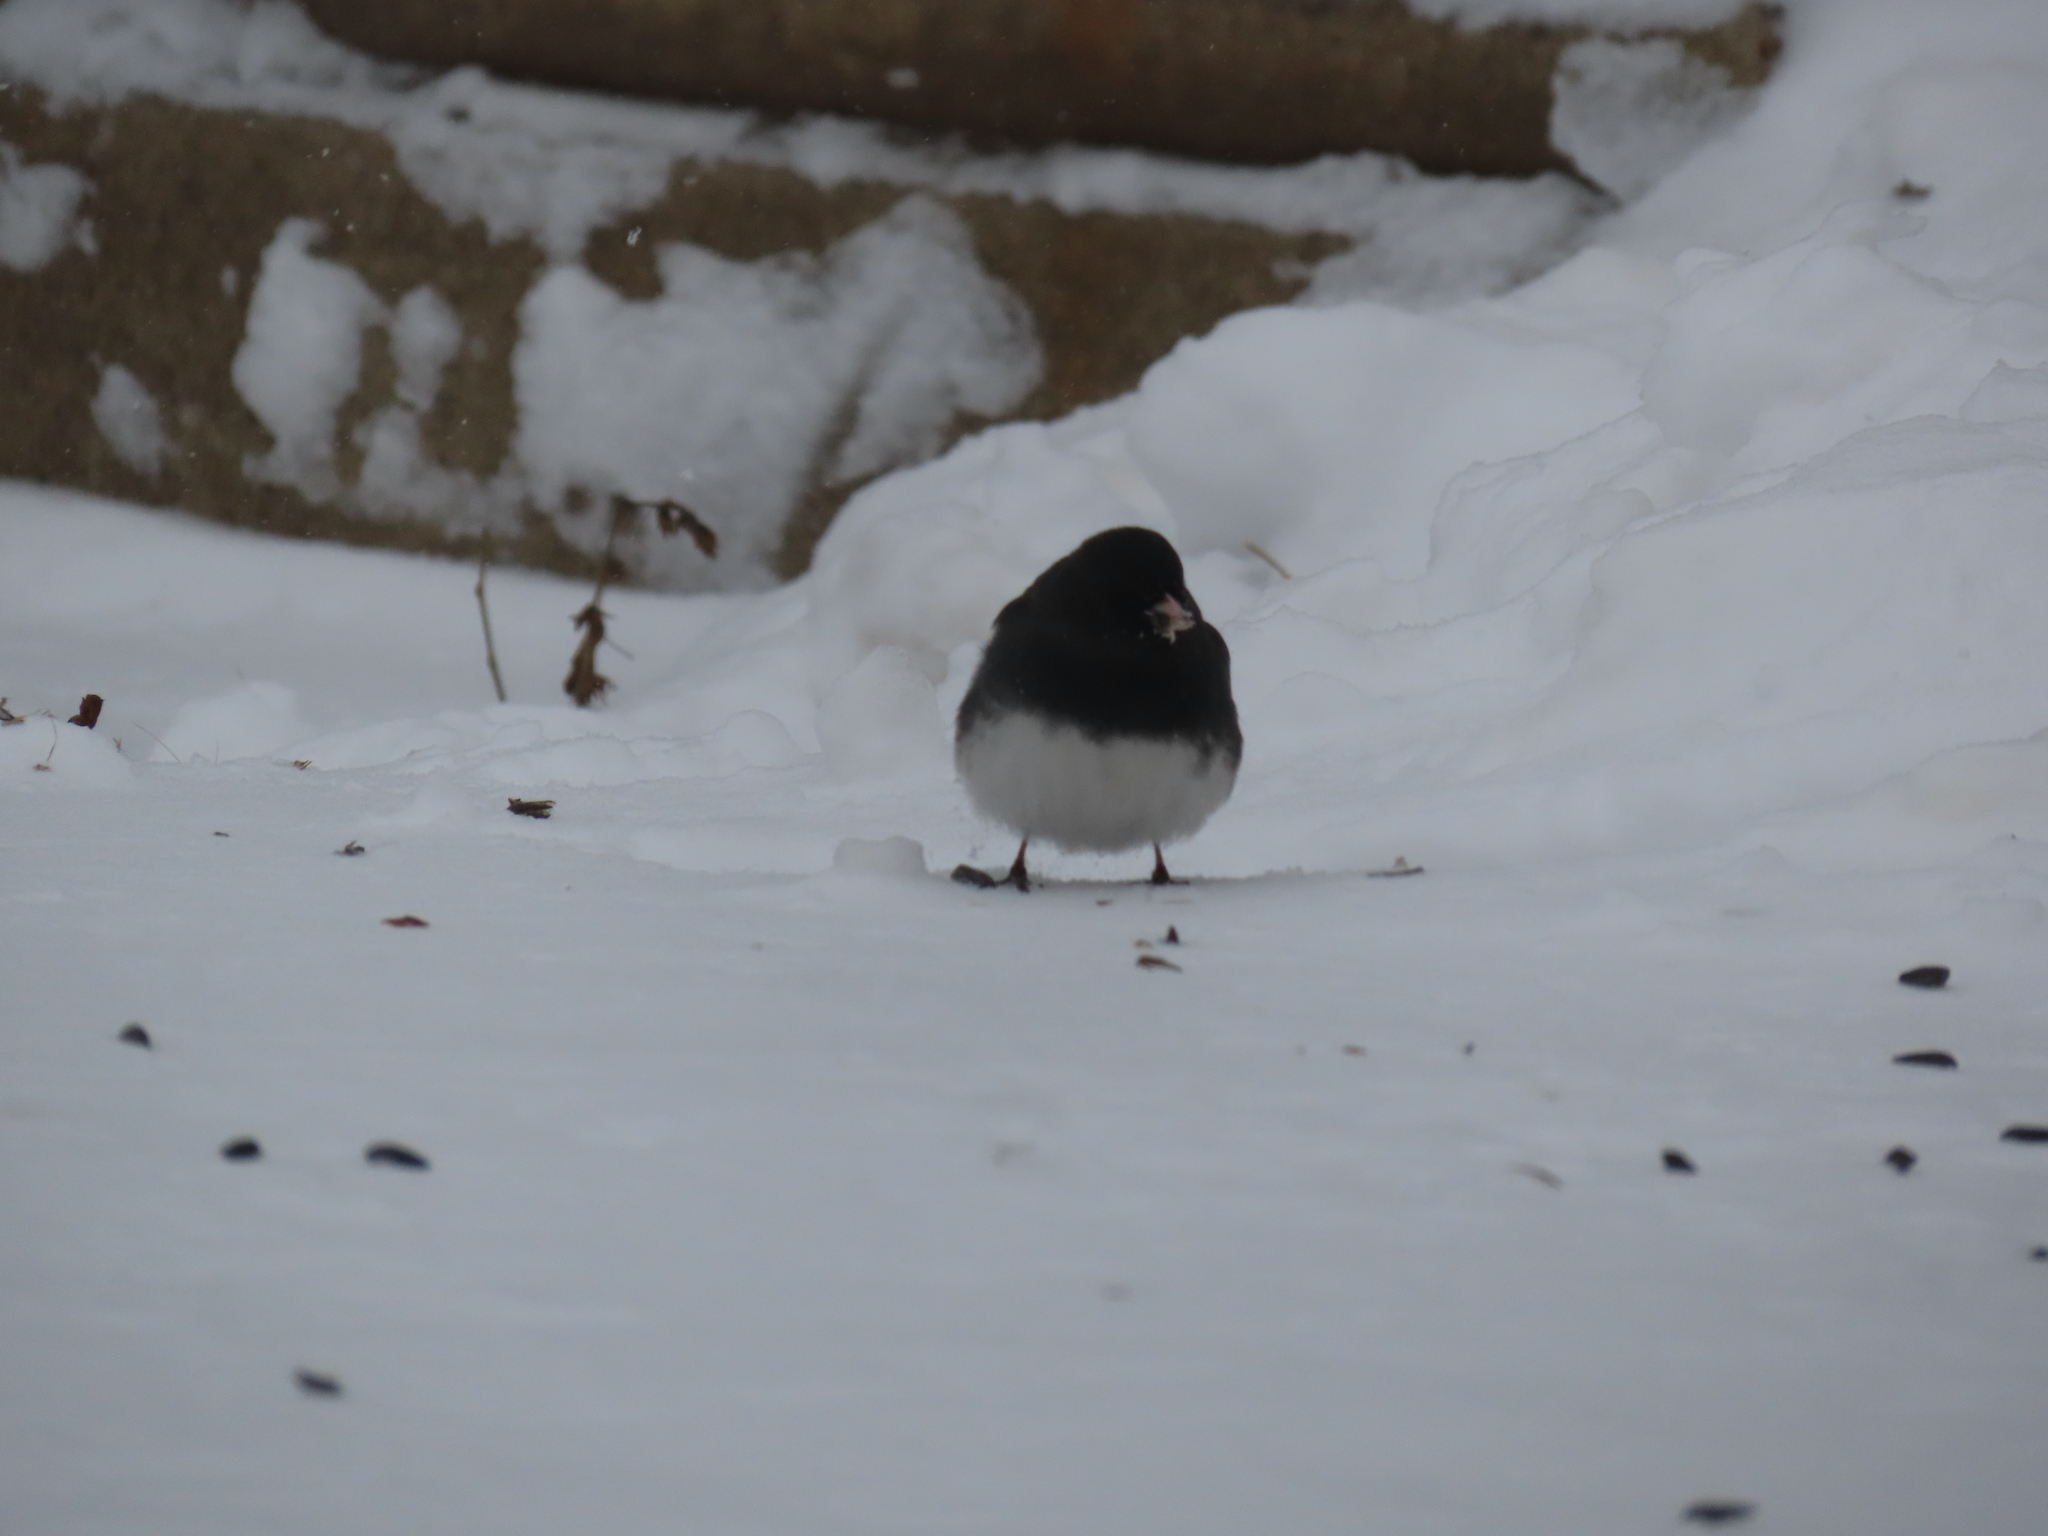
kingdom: Animalia
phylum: Chordata
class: Aves
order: Passeriformes
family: Passerellidae
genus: Junco
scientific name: Junco hyemalis
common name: Dark-eyed junco
